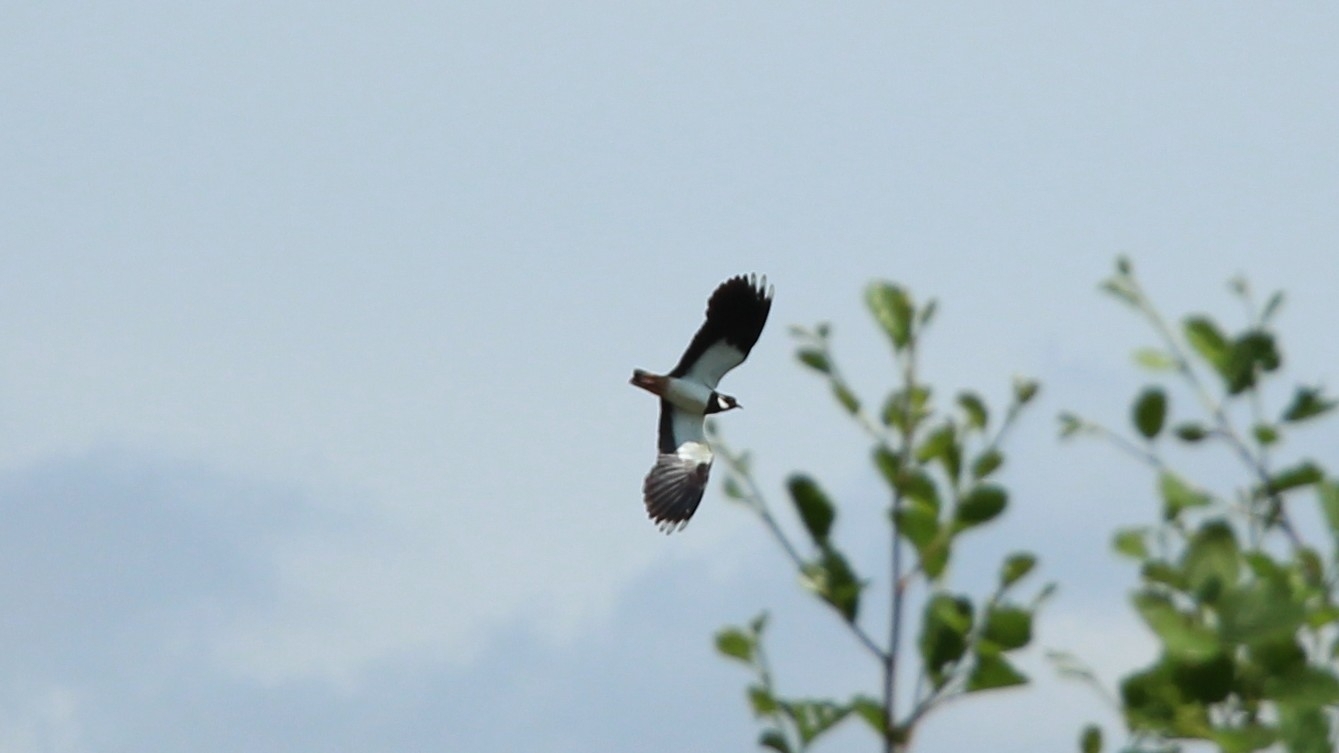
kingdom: Animalia
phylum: Chordata
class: Aves
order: Charadriiformes
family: Charadriidae
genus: Vanellus
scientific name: Vanellus vanellus
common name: Northern lapwing
